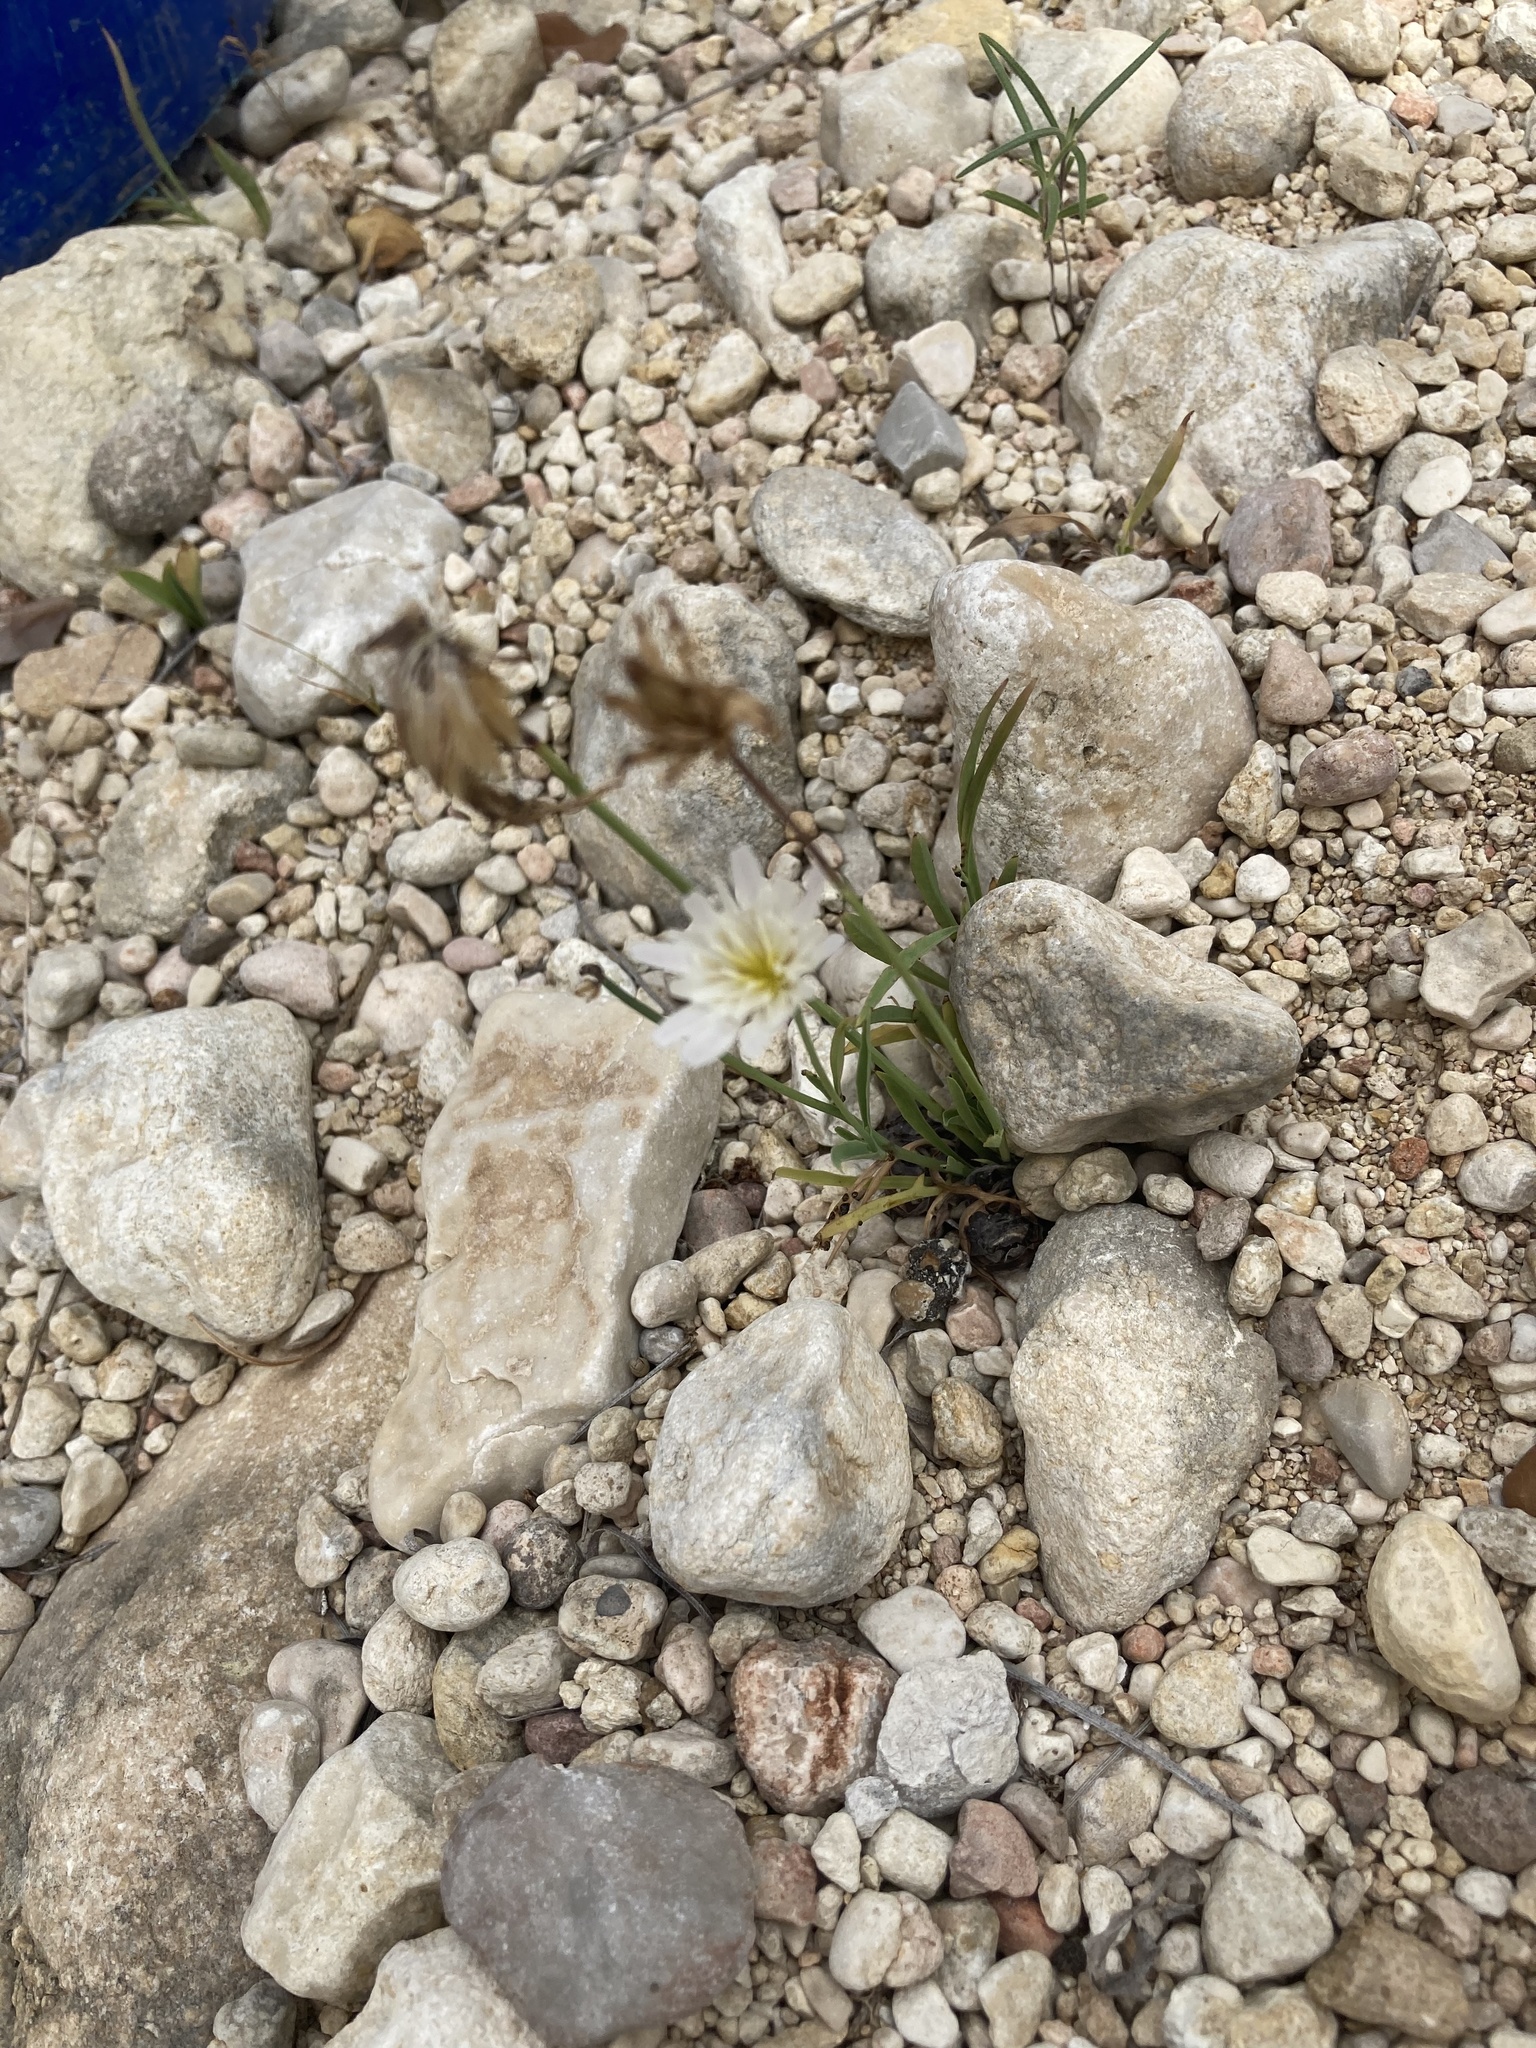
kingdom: Plantae
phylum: Tracheophyta
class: Magnoliopsida
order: Asterales
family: Asteraceae
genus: Pinaropappus
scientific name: Pinaropappus roseus
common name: Rock-lettuce
